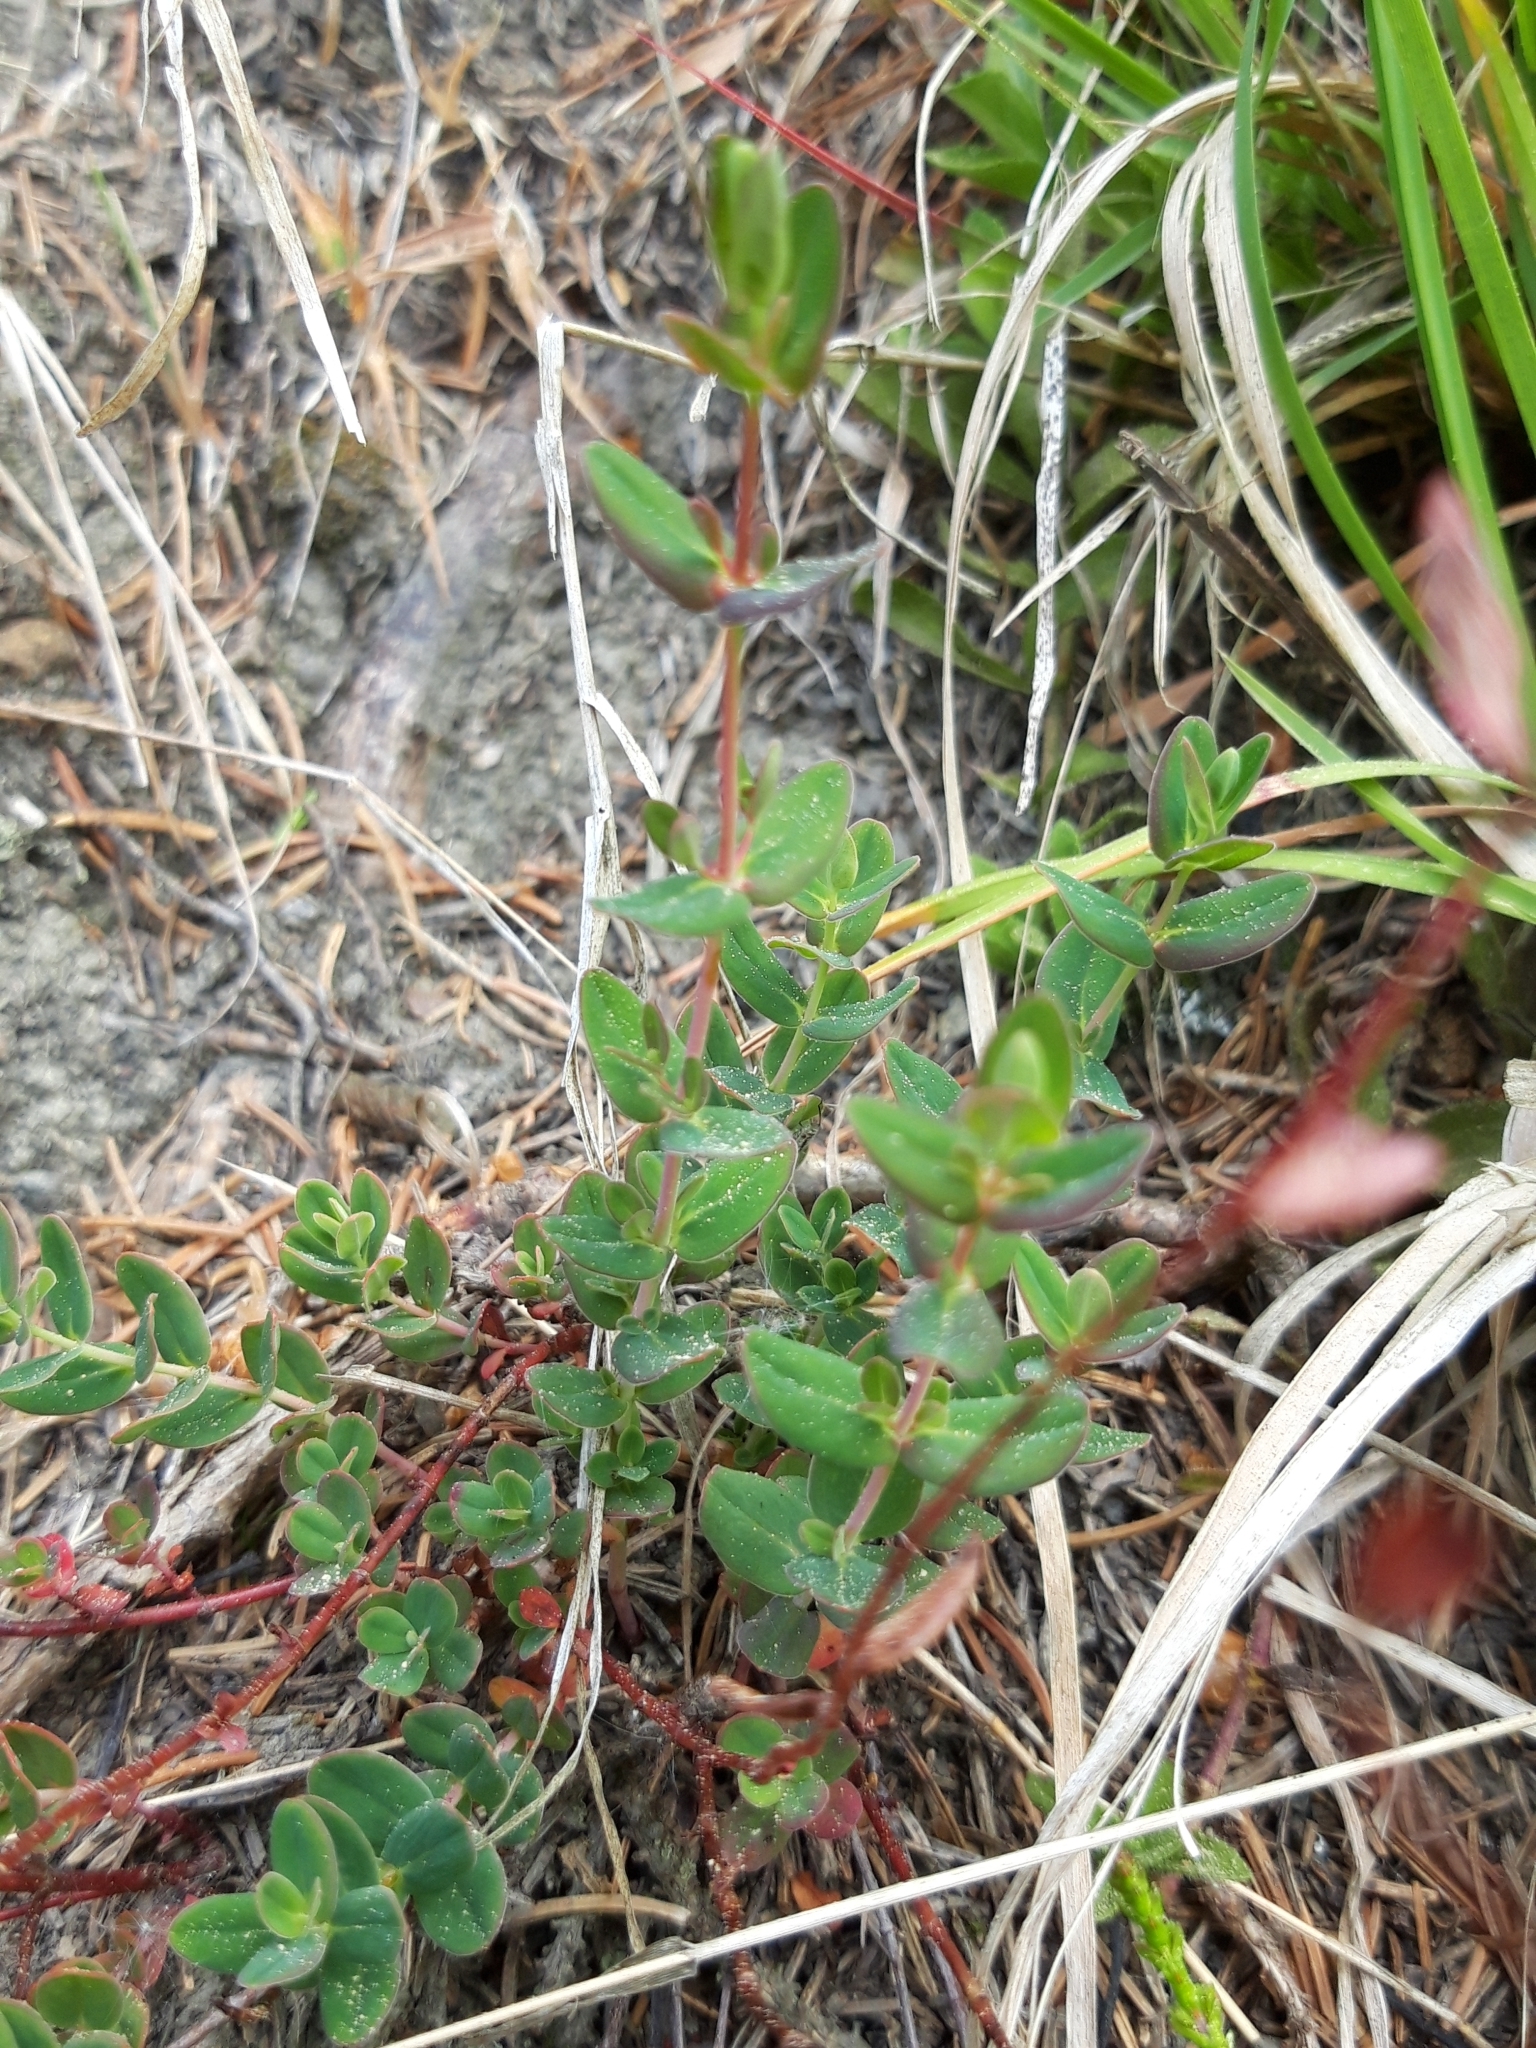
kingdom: Plantae
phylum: Tracheophyta
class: Magnoliopsida
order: Malpighiales
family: Hypericaceae
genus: Hypericum
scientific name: Hypericum pulchrum
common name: Slender st. john's-wort
